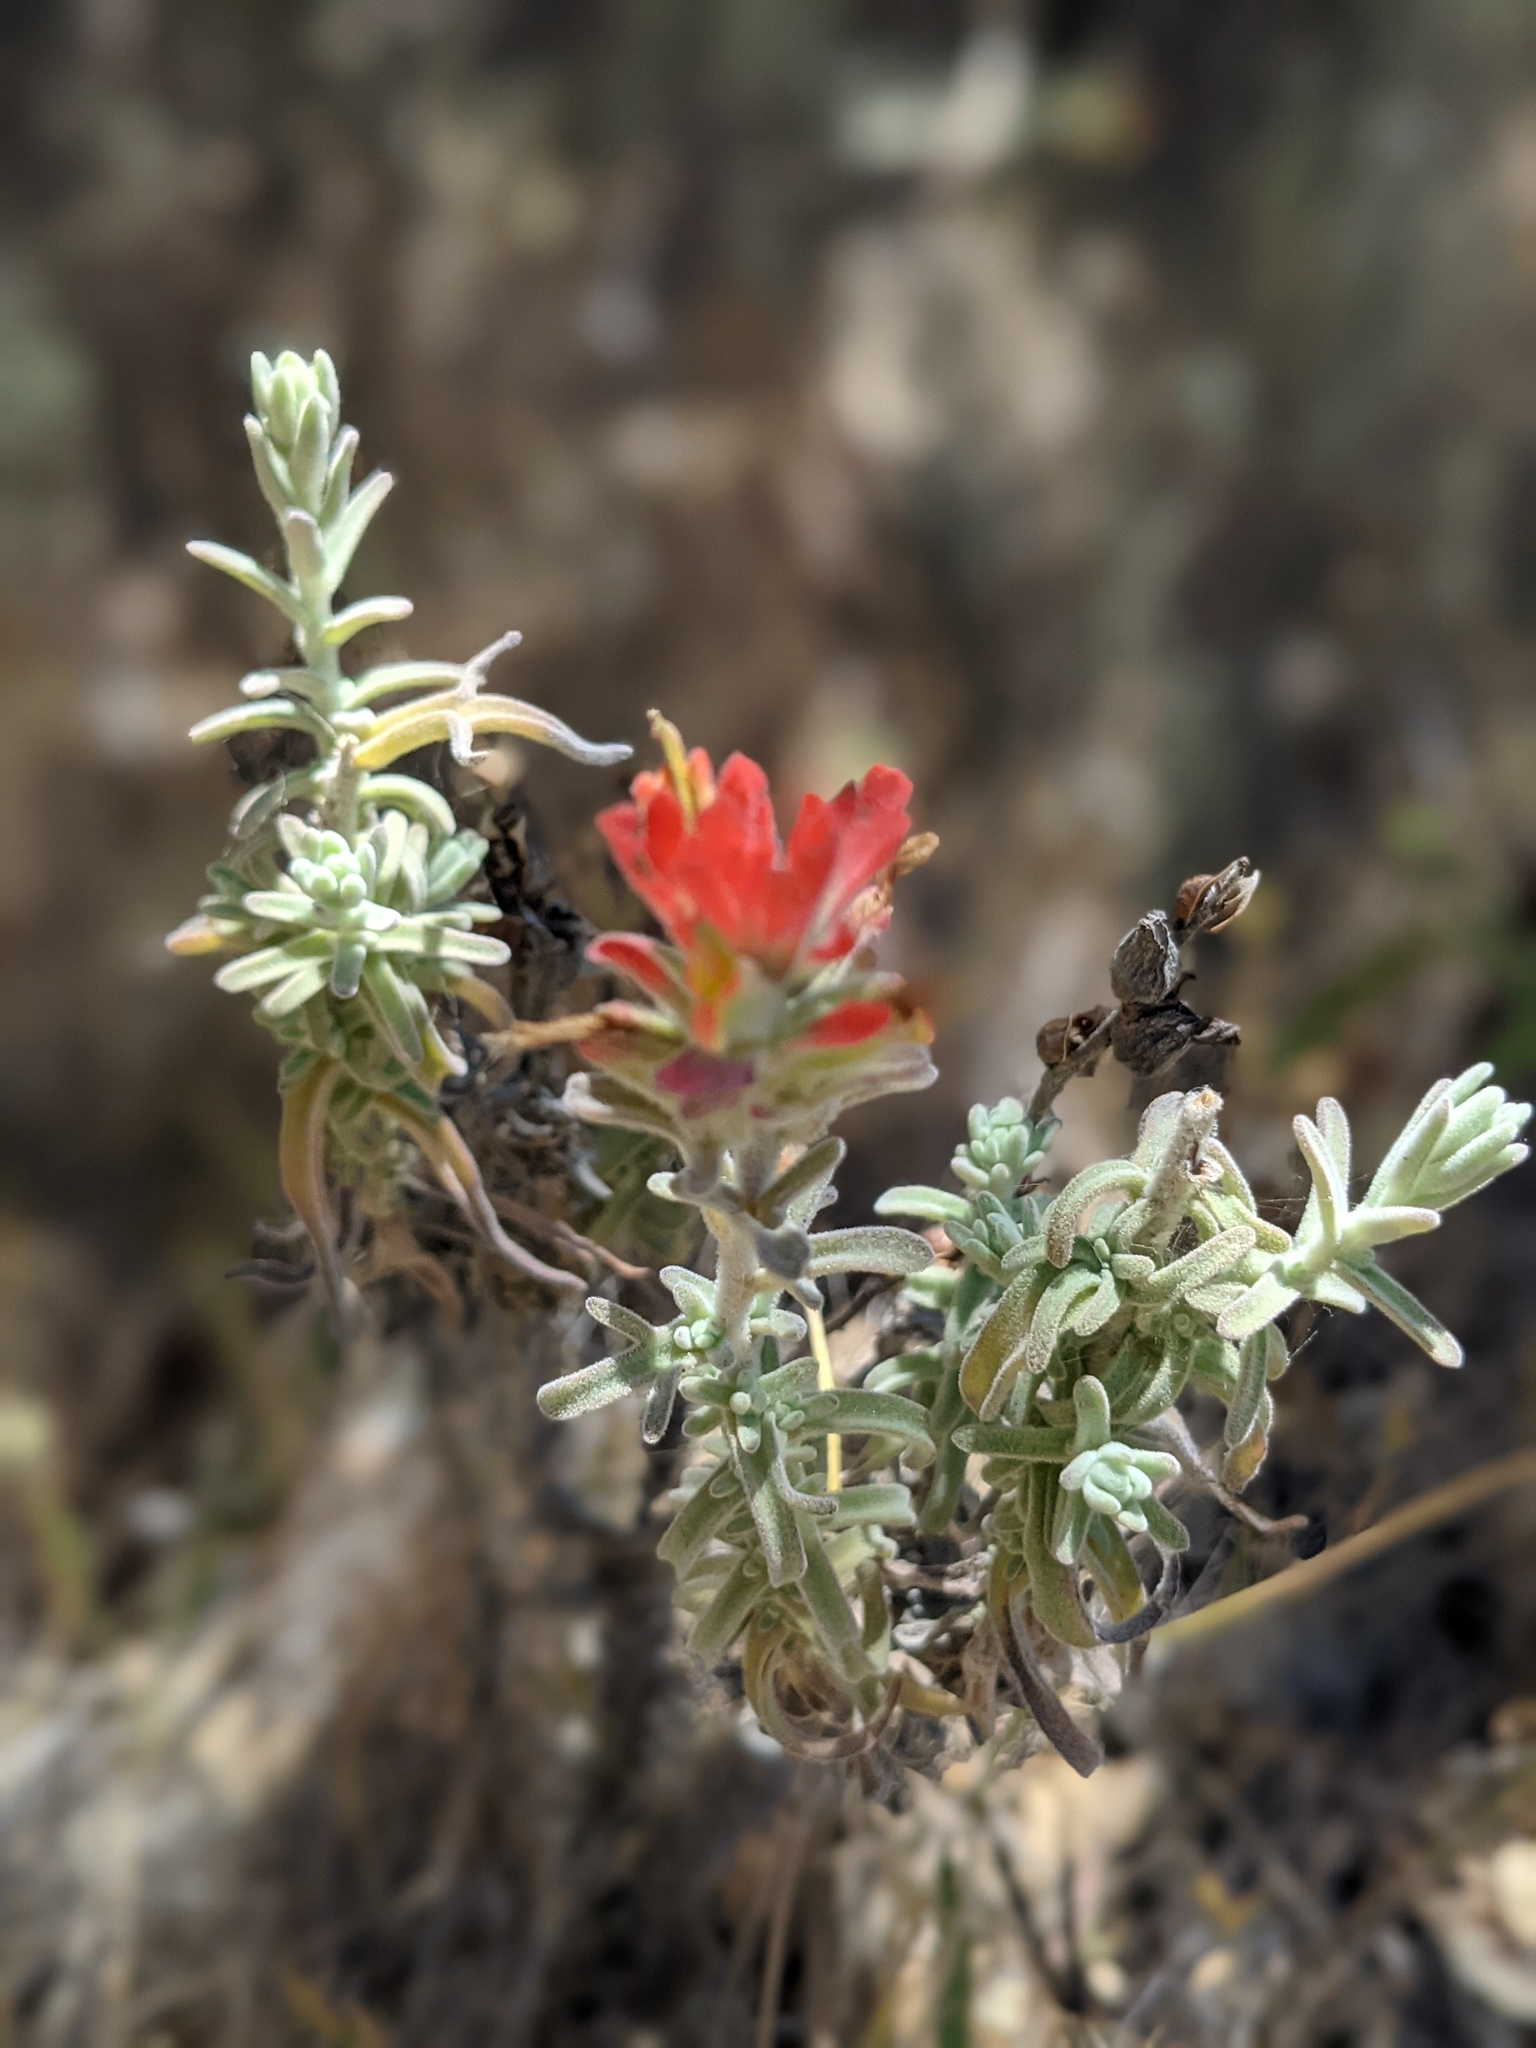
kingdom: Plantae
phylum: Tracheophyta
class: Magnoliopsida
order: Lamiales
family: Orobanchaceae
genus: Castilleja
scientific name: Castilleja foliolosa
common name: Woolly indian paintbrush
